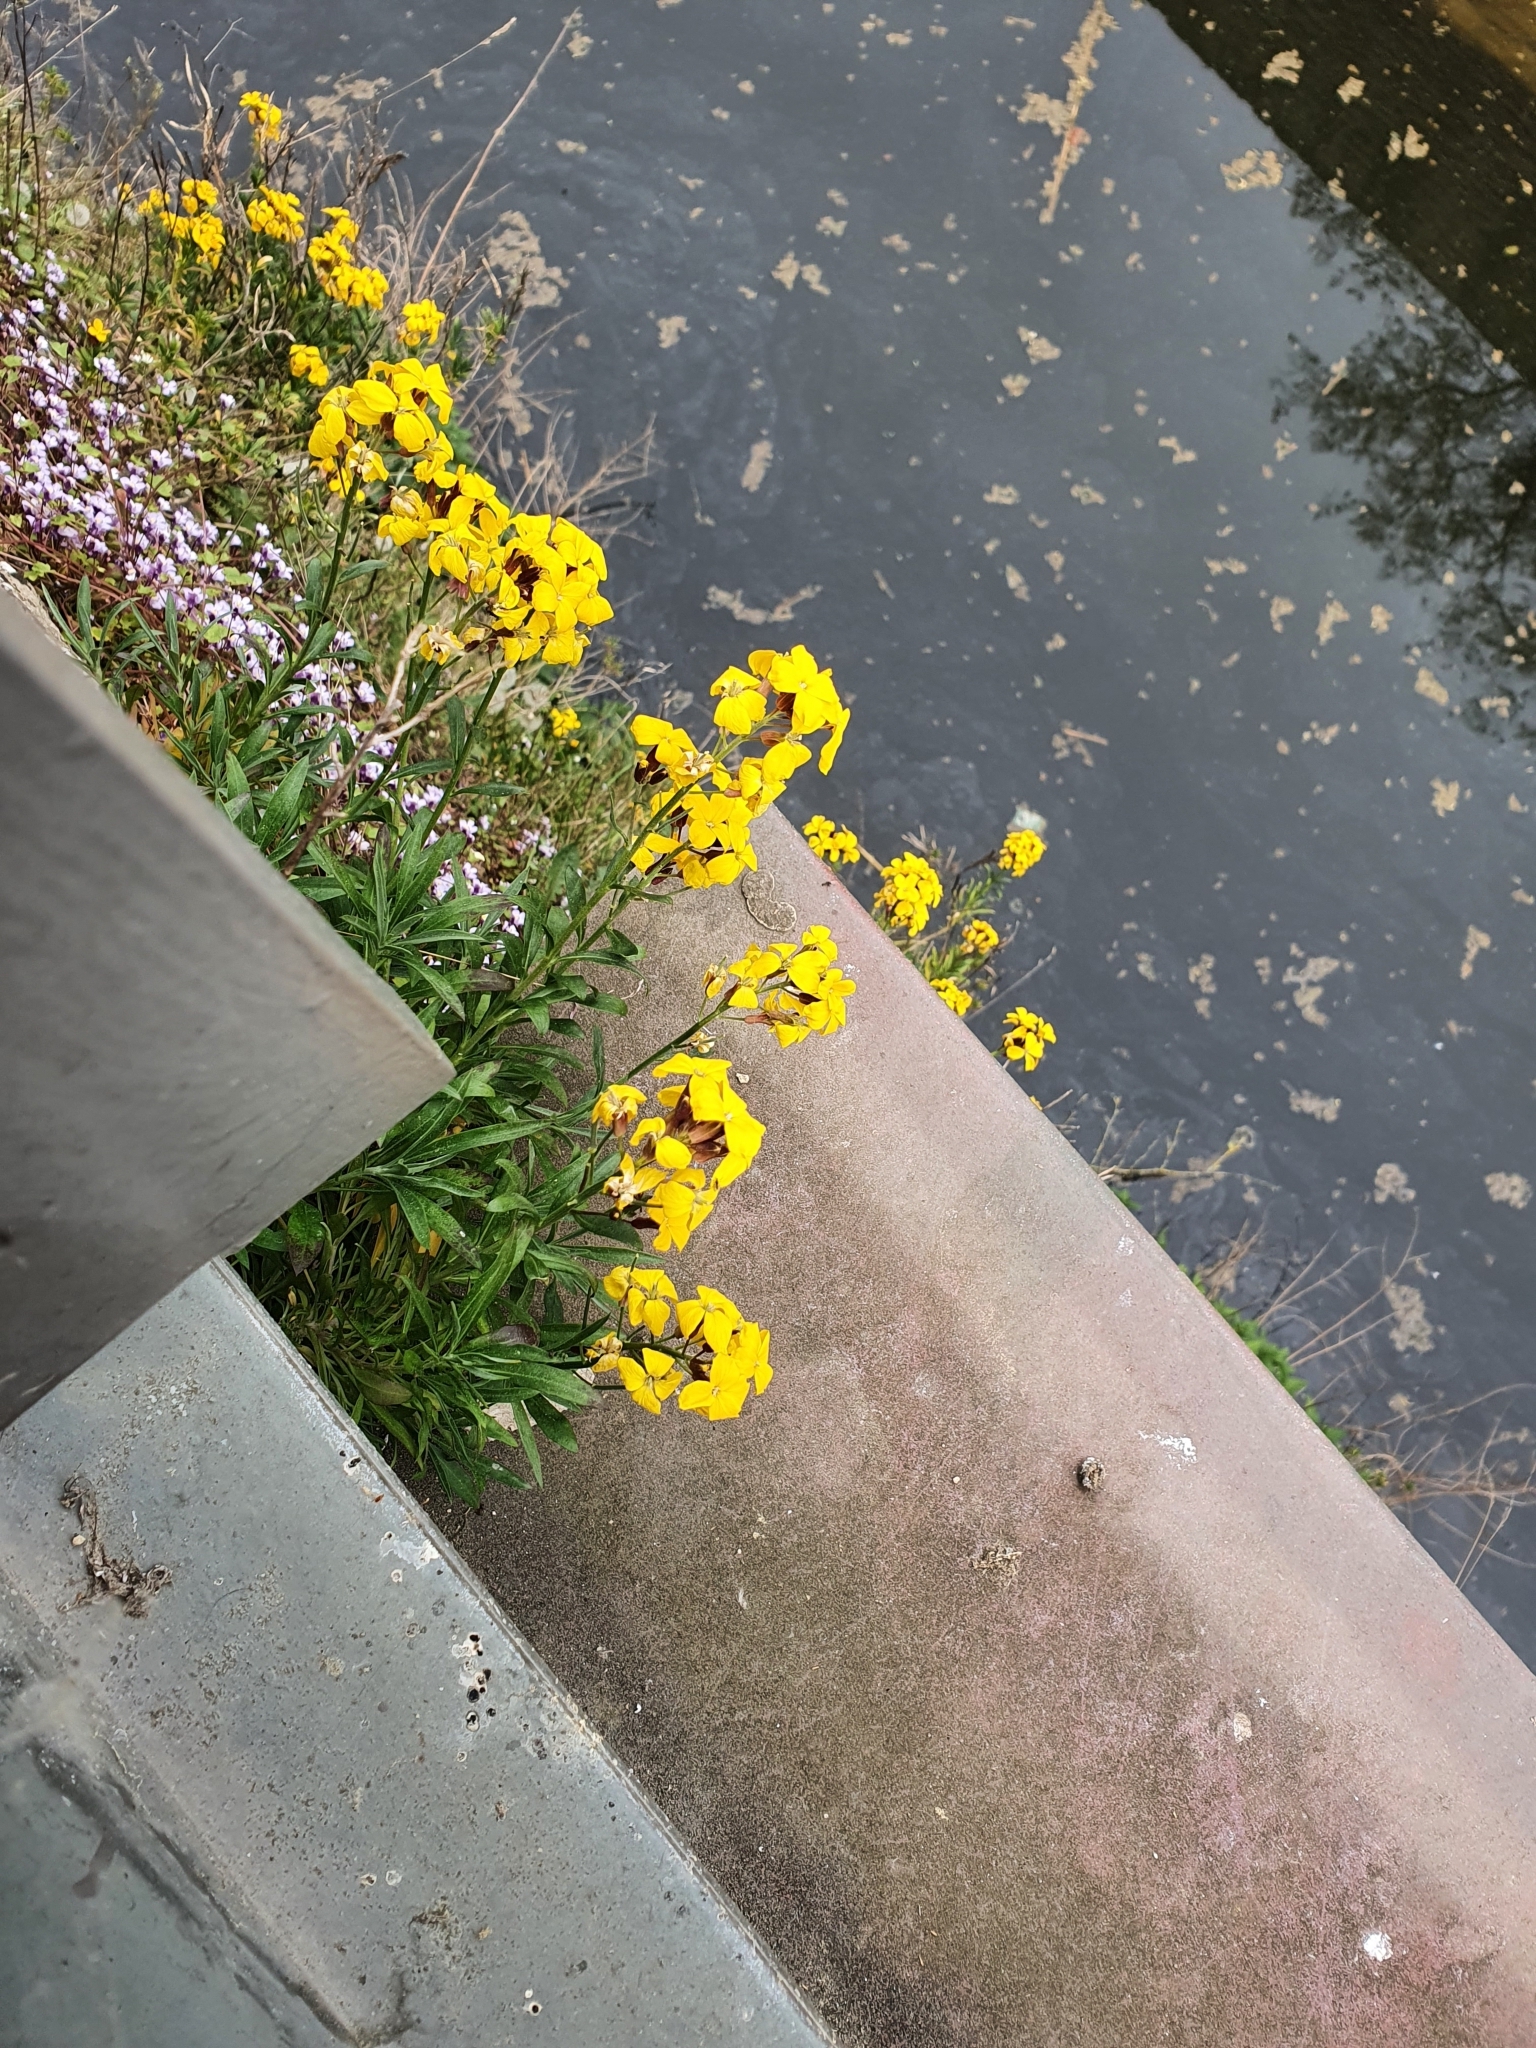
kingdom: Plantae
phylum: Tracheophyta
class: Magnoliopsida
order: Brassicales
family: Brassicaceae
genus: Erysimum
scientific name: Erysimum cheiri
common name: Wallflower
